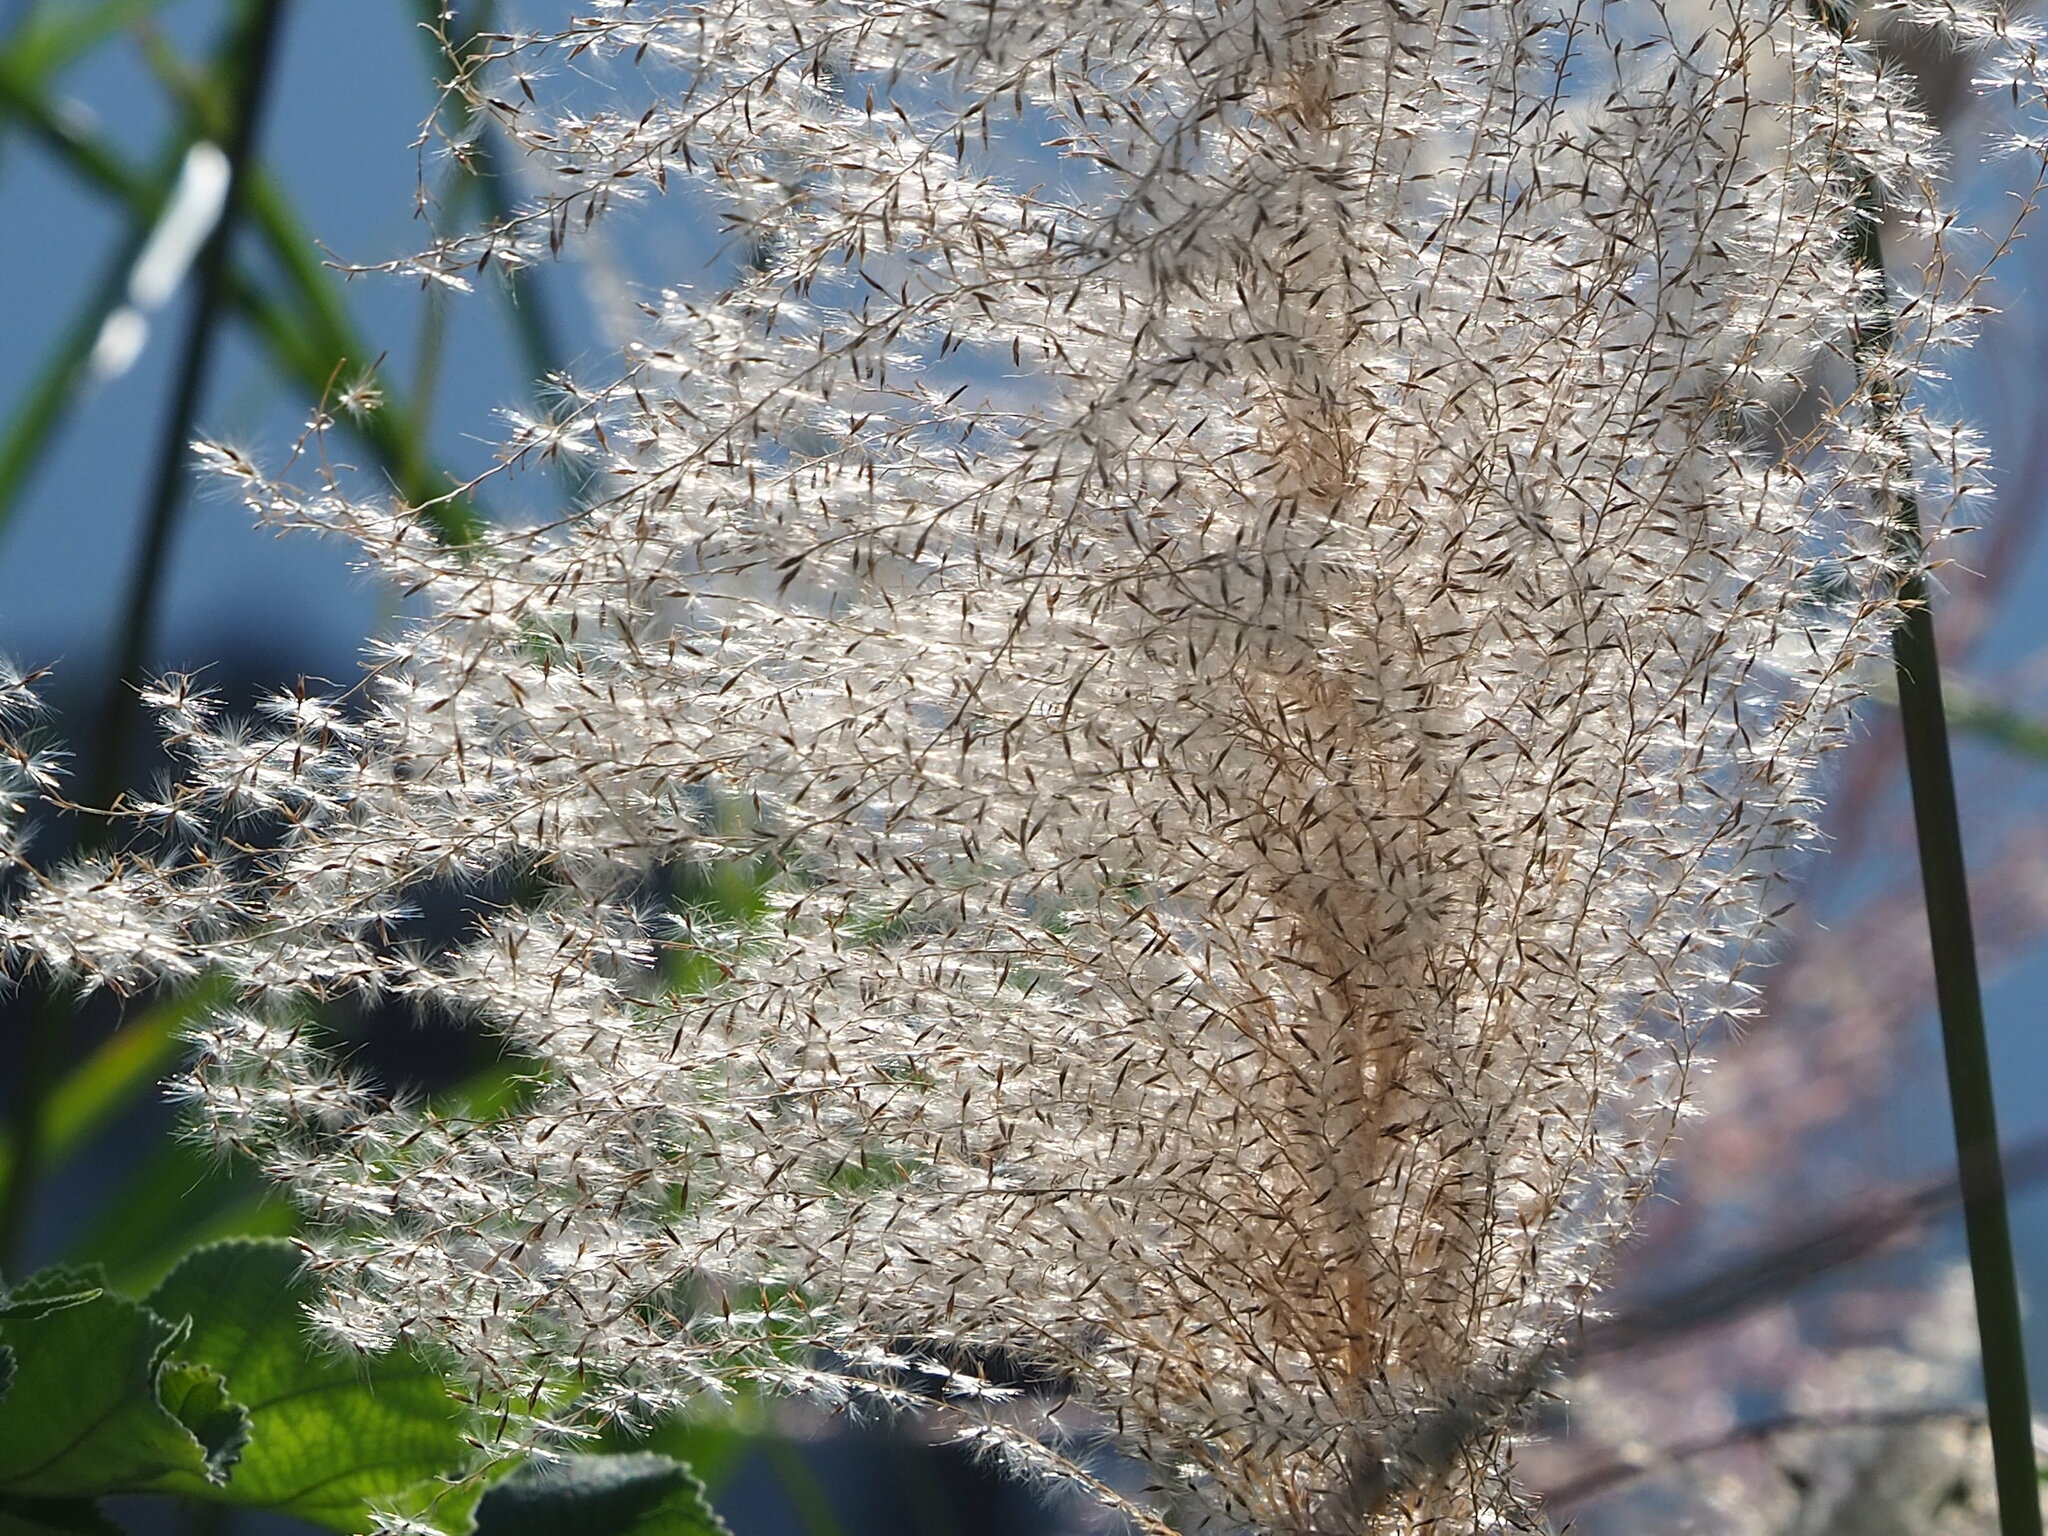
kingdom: Plantae
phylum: Tracheophyta
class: Liliopsida
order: Poales
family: Poaceae
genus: Miscanthus
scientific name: Miscanthus sinensis
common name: Chinese silvergrass
